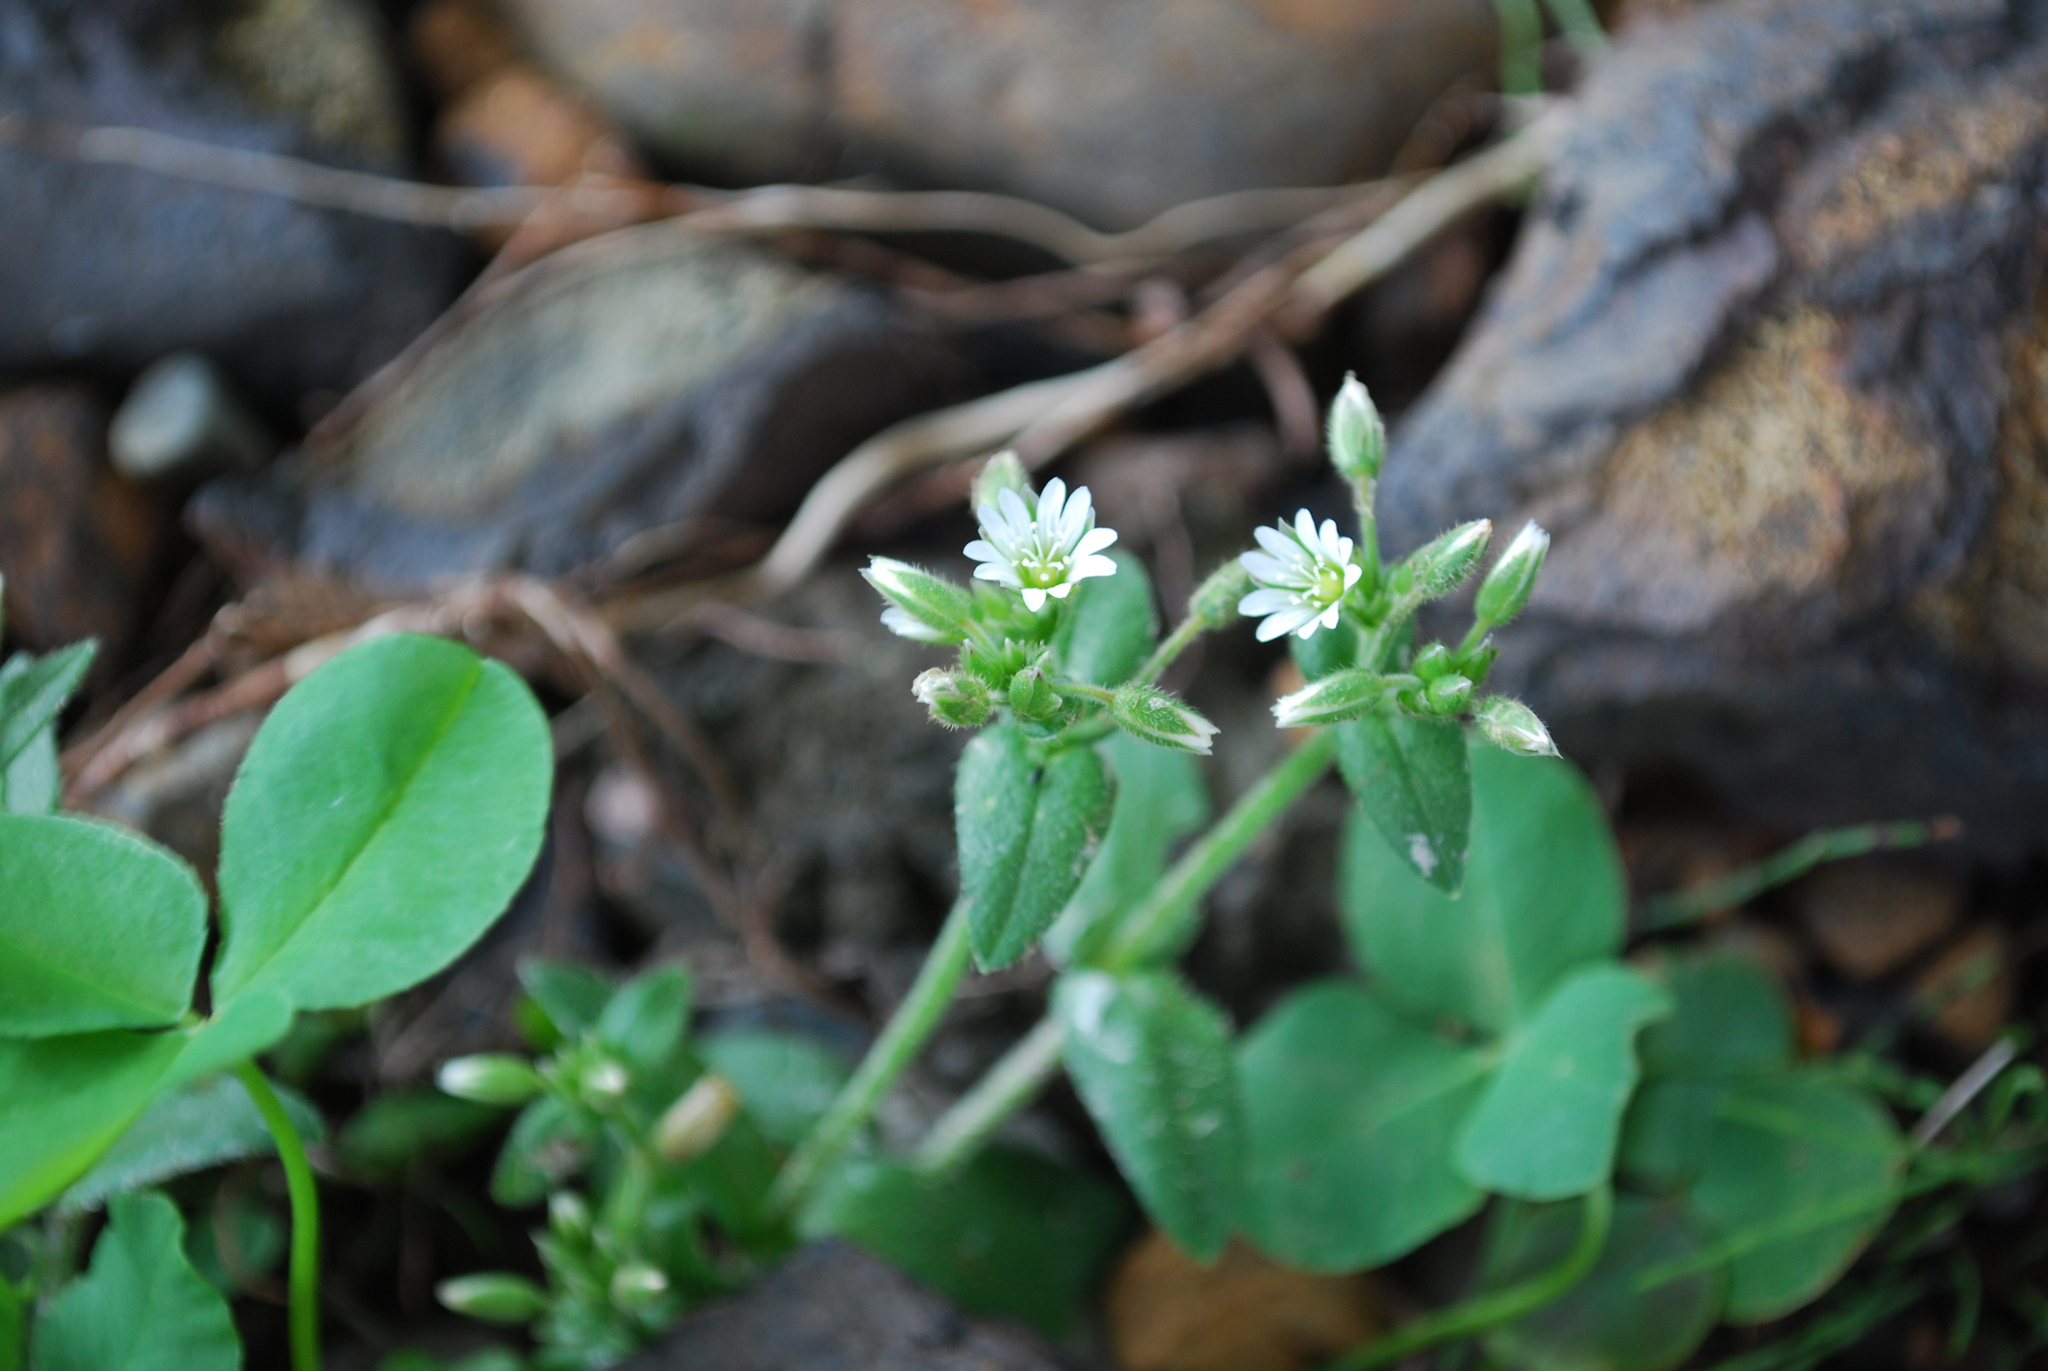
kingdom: Plantae
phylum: Tracheophyta
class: Magnoliopsida
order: Caryophyllales
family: Caryophyllaceae
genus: Stellaria
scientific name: Stellaria media
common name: Common chickweed
